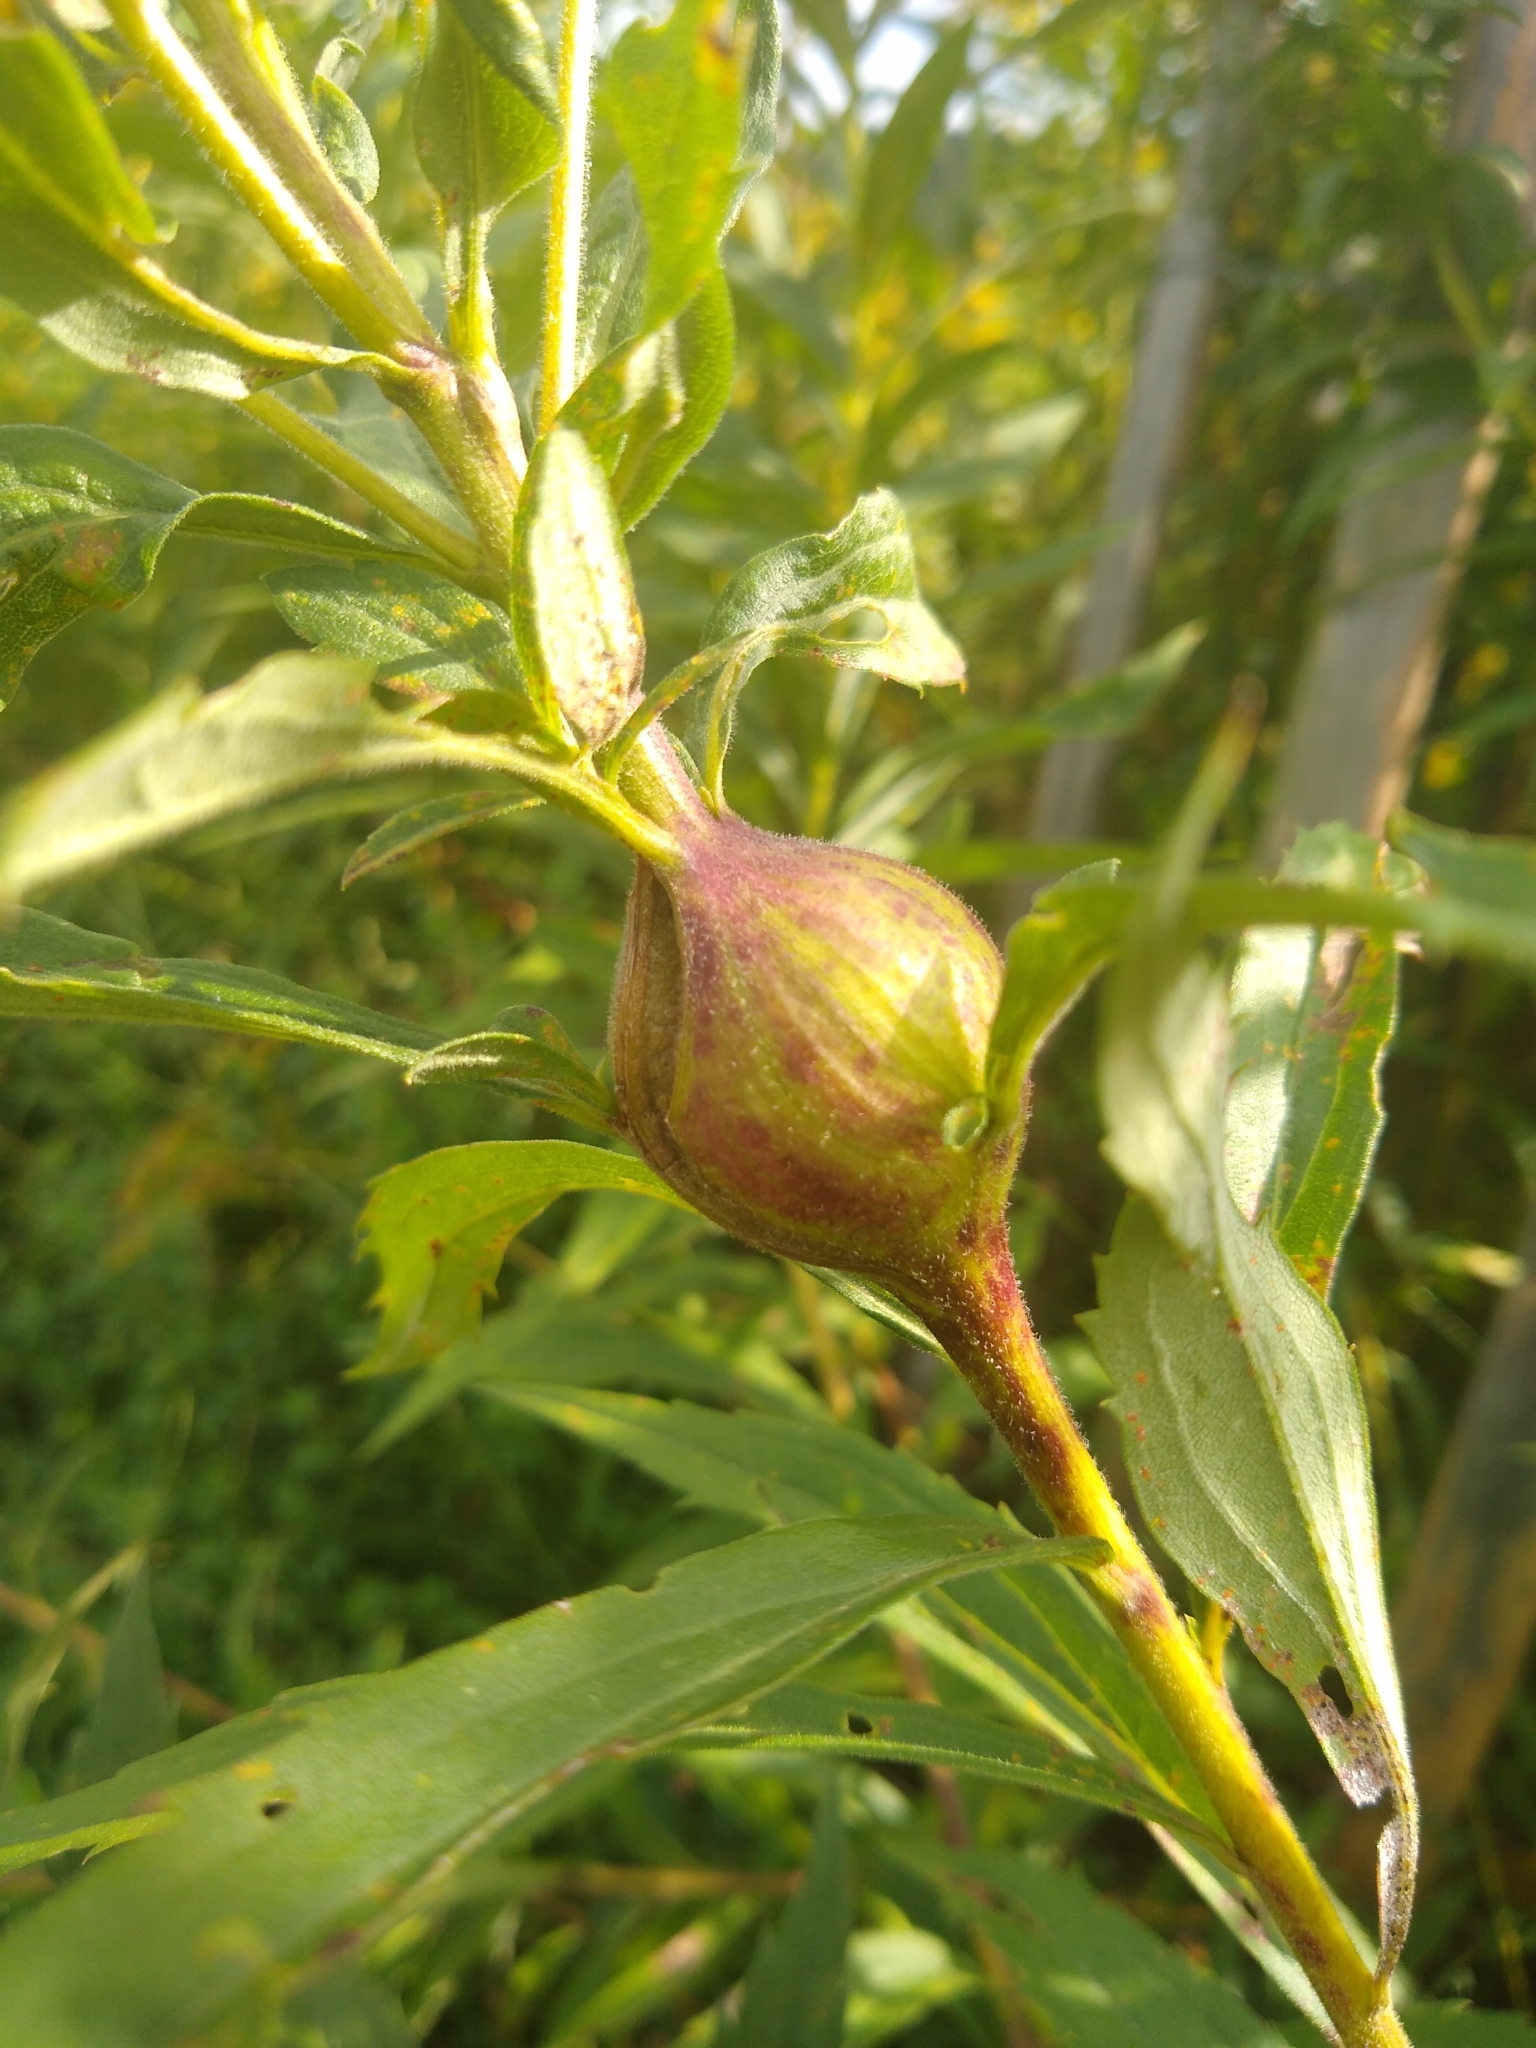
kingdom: Animalia
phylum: Arthropoda
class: Insecta
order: Diptera
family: Tephritidae
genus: Eurosta
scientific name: Eurosta solidaginis
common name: Goldenrod gall fly
